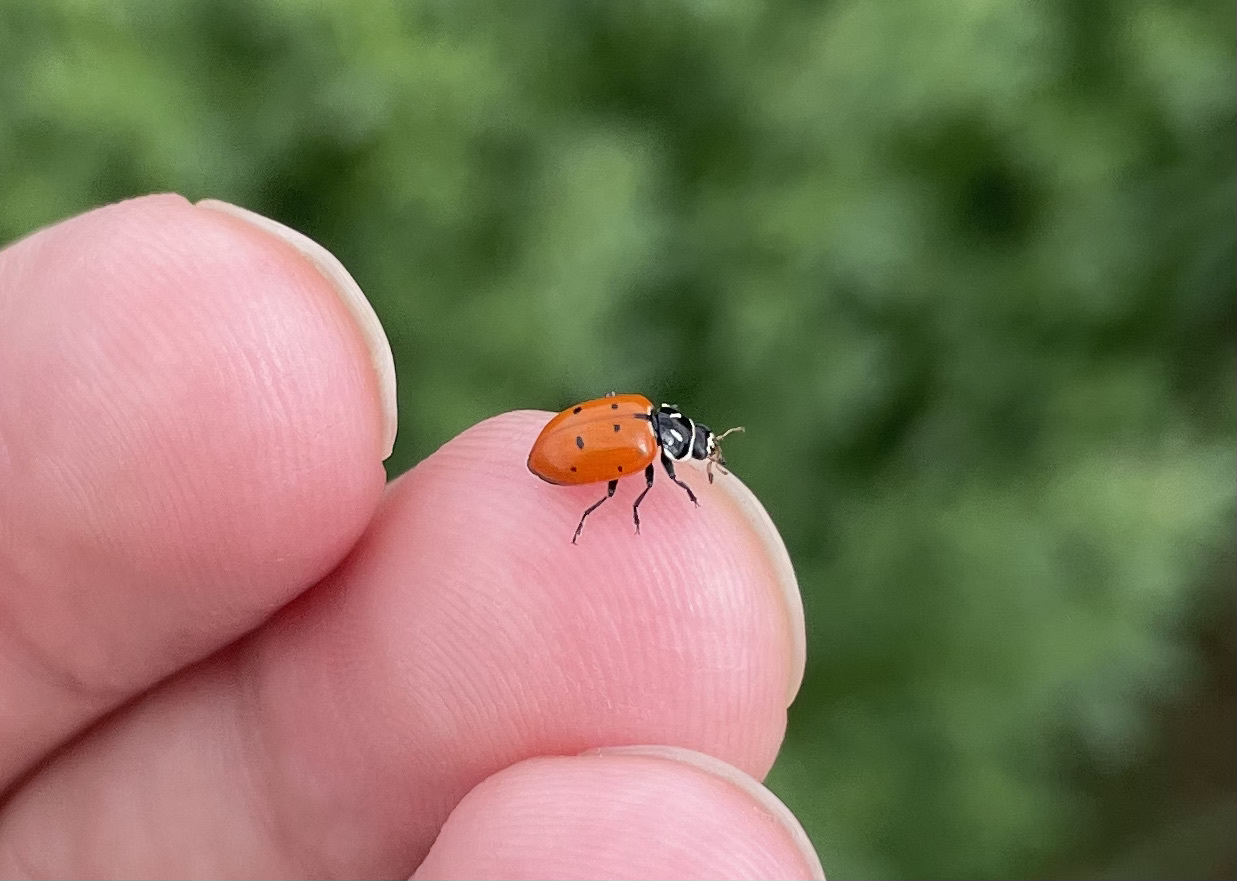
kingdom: Animalia
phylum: Arthropoda
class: Insecta
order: Coleoptera
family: Coccinellidae
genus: Hippodamia
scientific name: Hippodamia convergens
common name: Convergent lady beetle
